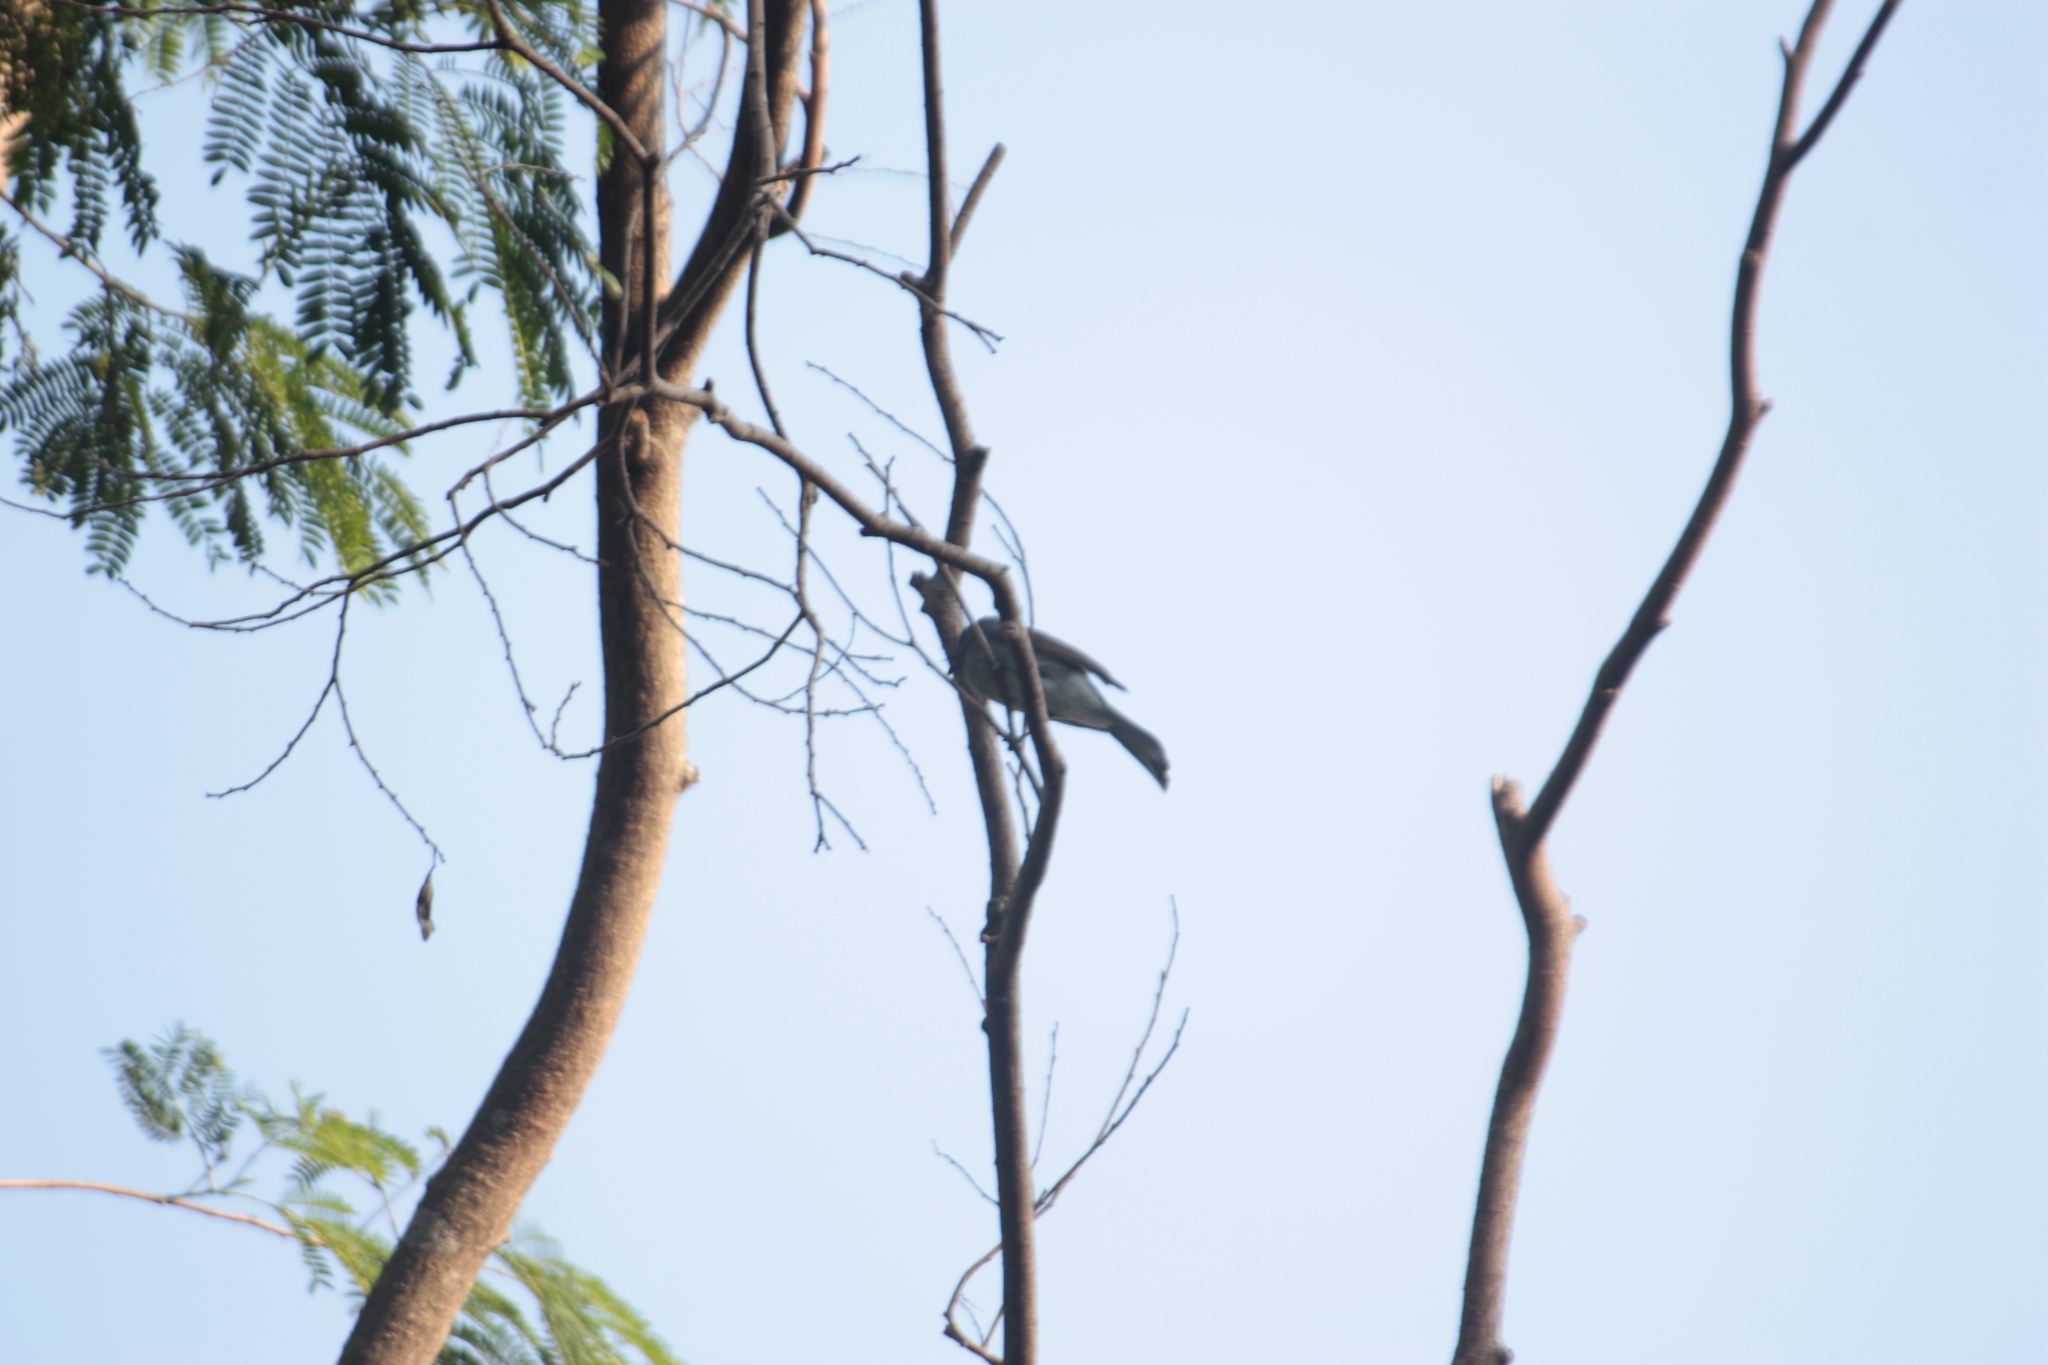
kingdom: Animalia
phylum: Chordata
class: Aves
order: Passeriformes
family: Monarchidae
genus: Hypothymis
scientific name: Hypothymis azurea
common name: Black-naped monarch
